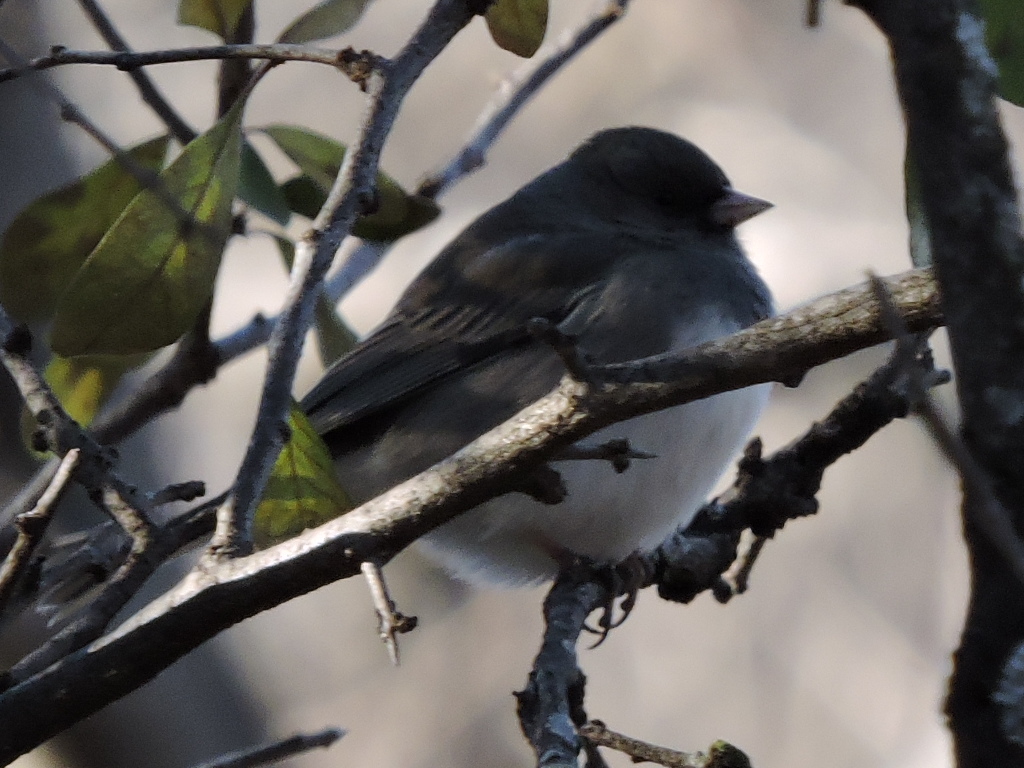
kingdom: Animalia
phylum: Chordata
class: Aves
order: Passeriformes
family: Passerellidae
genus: Junco
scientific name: Junco hyemalis
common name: Dark-eyed junco
